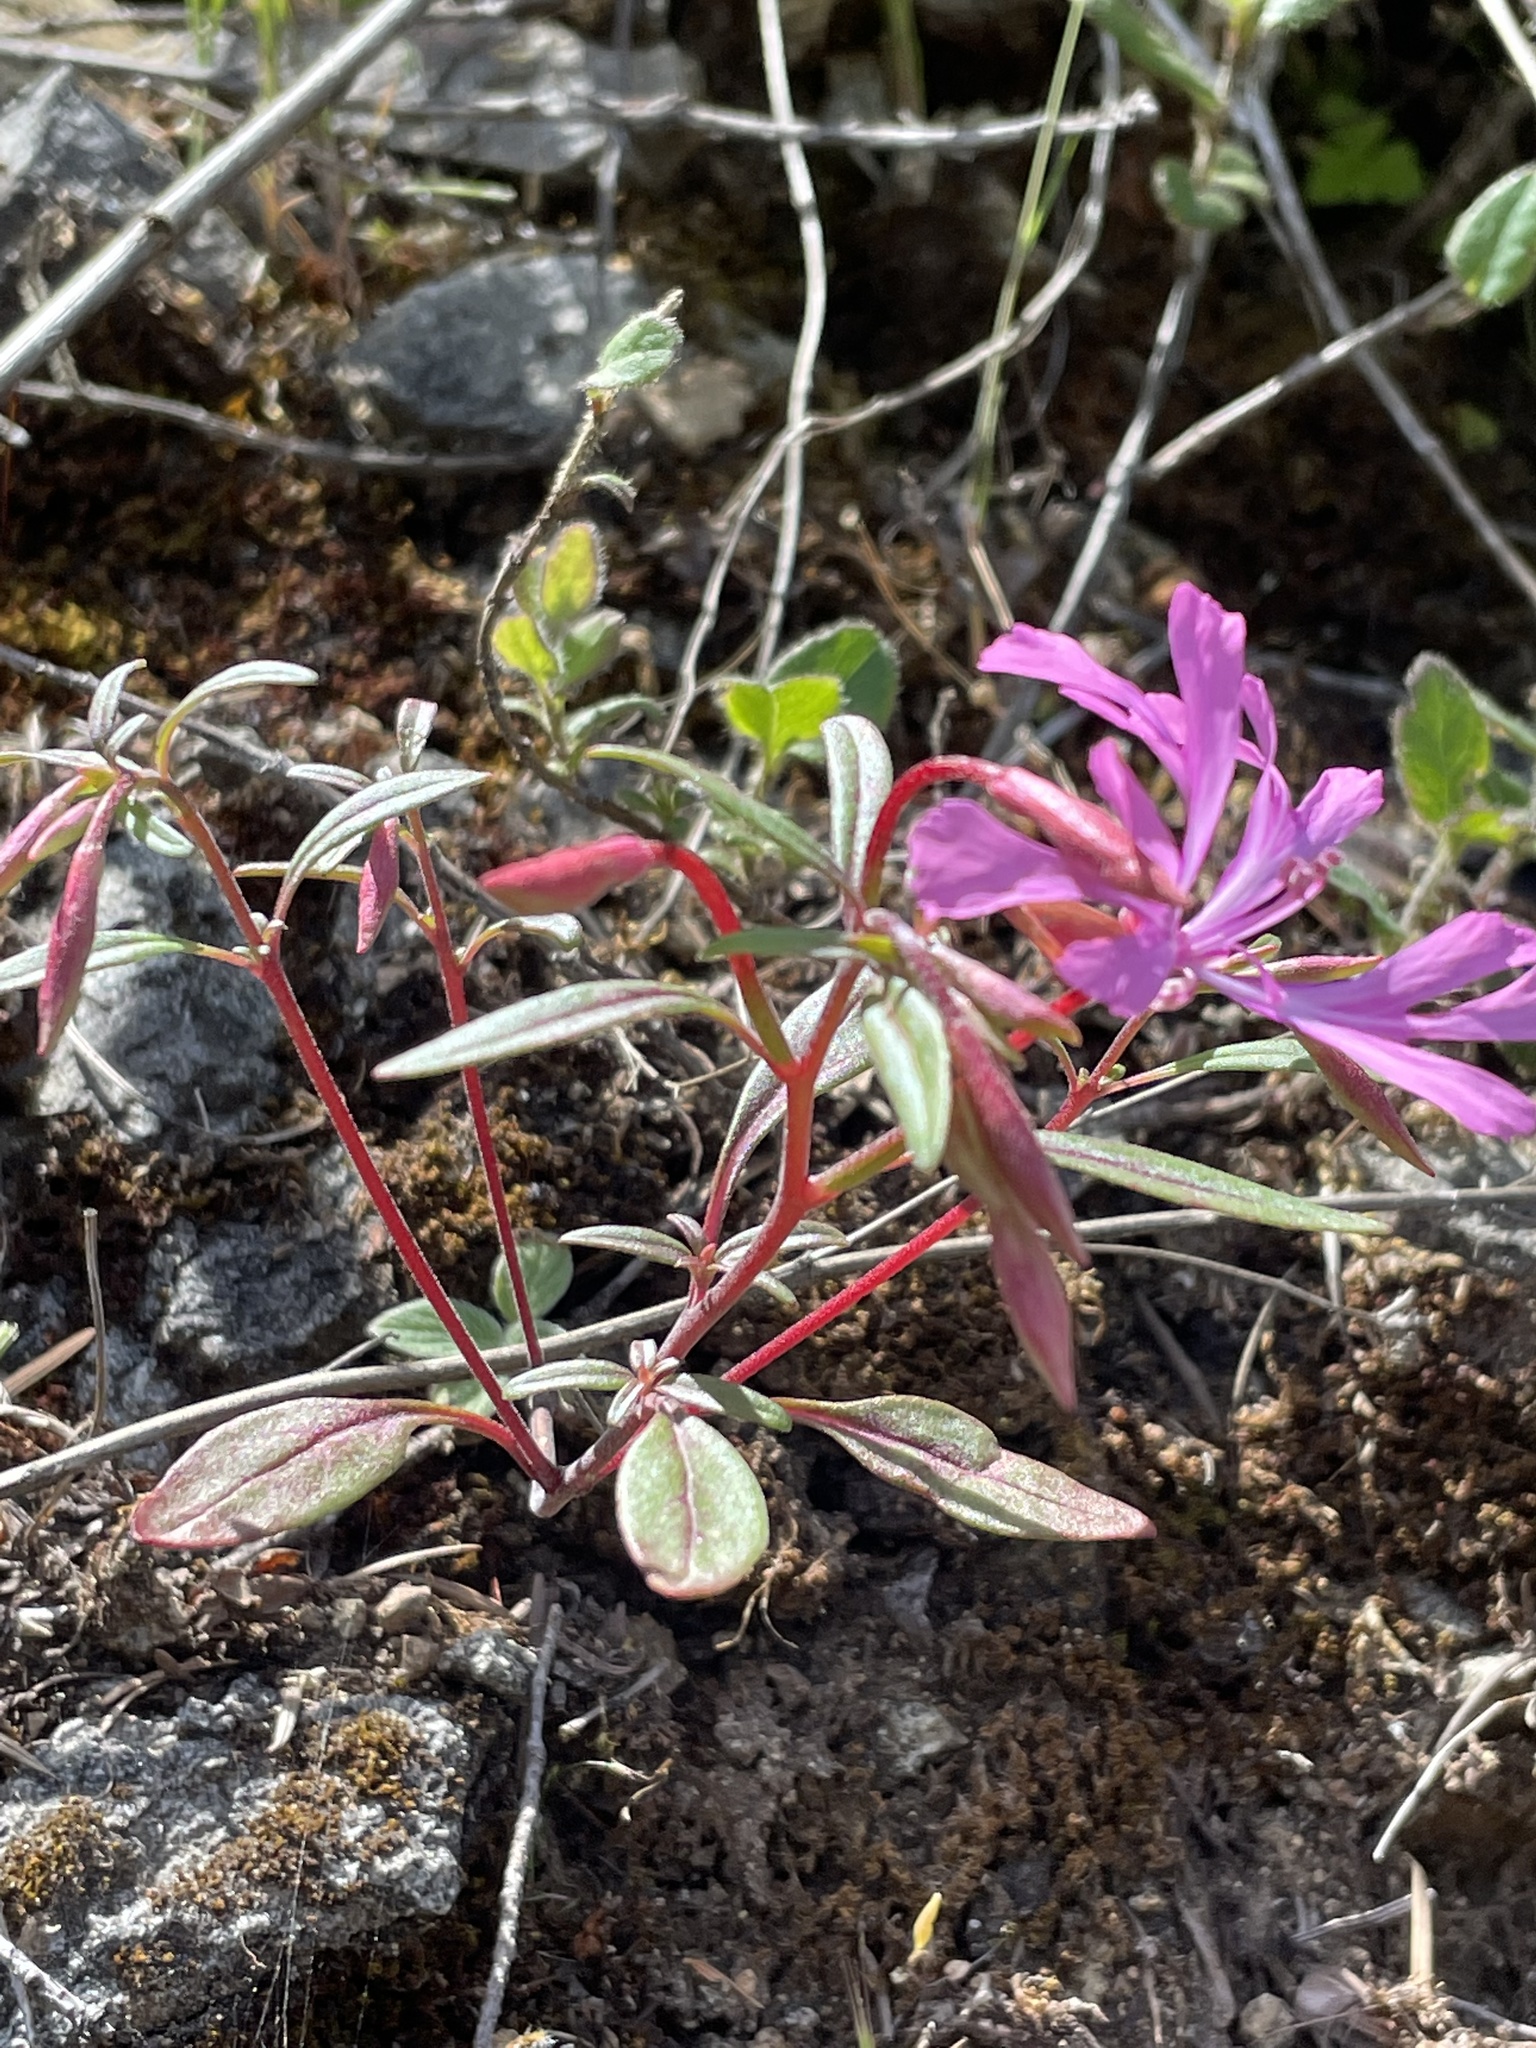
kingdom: Plantae
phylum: Tracheophyta
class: Magnoliopsida
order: Myrtales
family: Onagraceae
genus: Clarkia
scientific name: Clarkia concinna
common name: Red-ribbons
